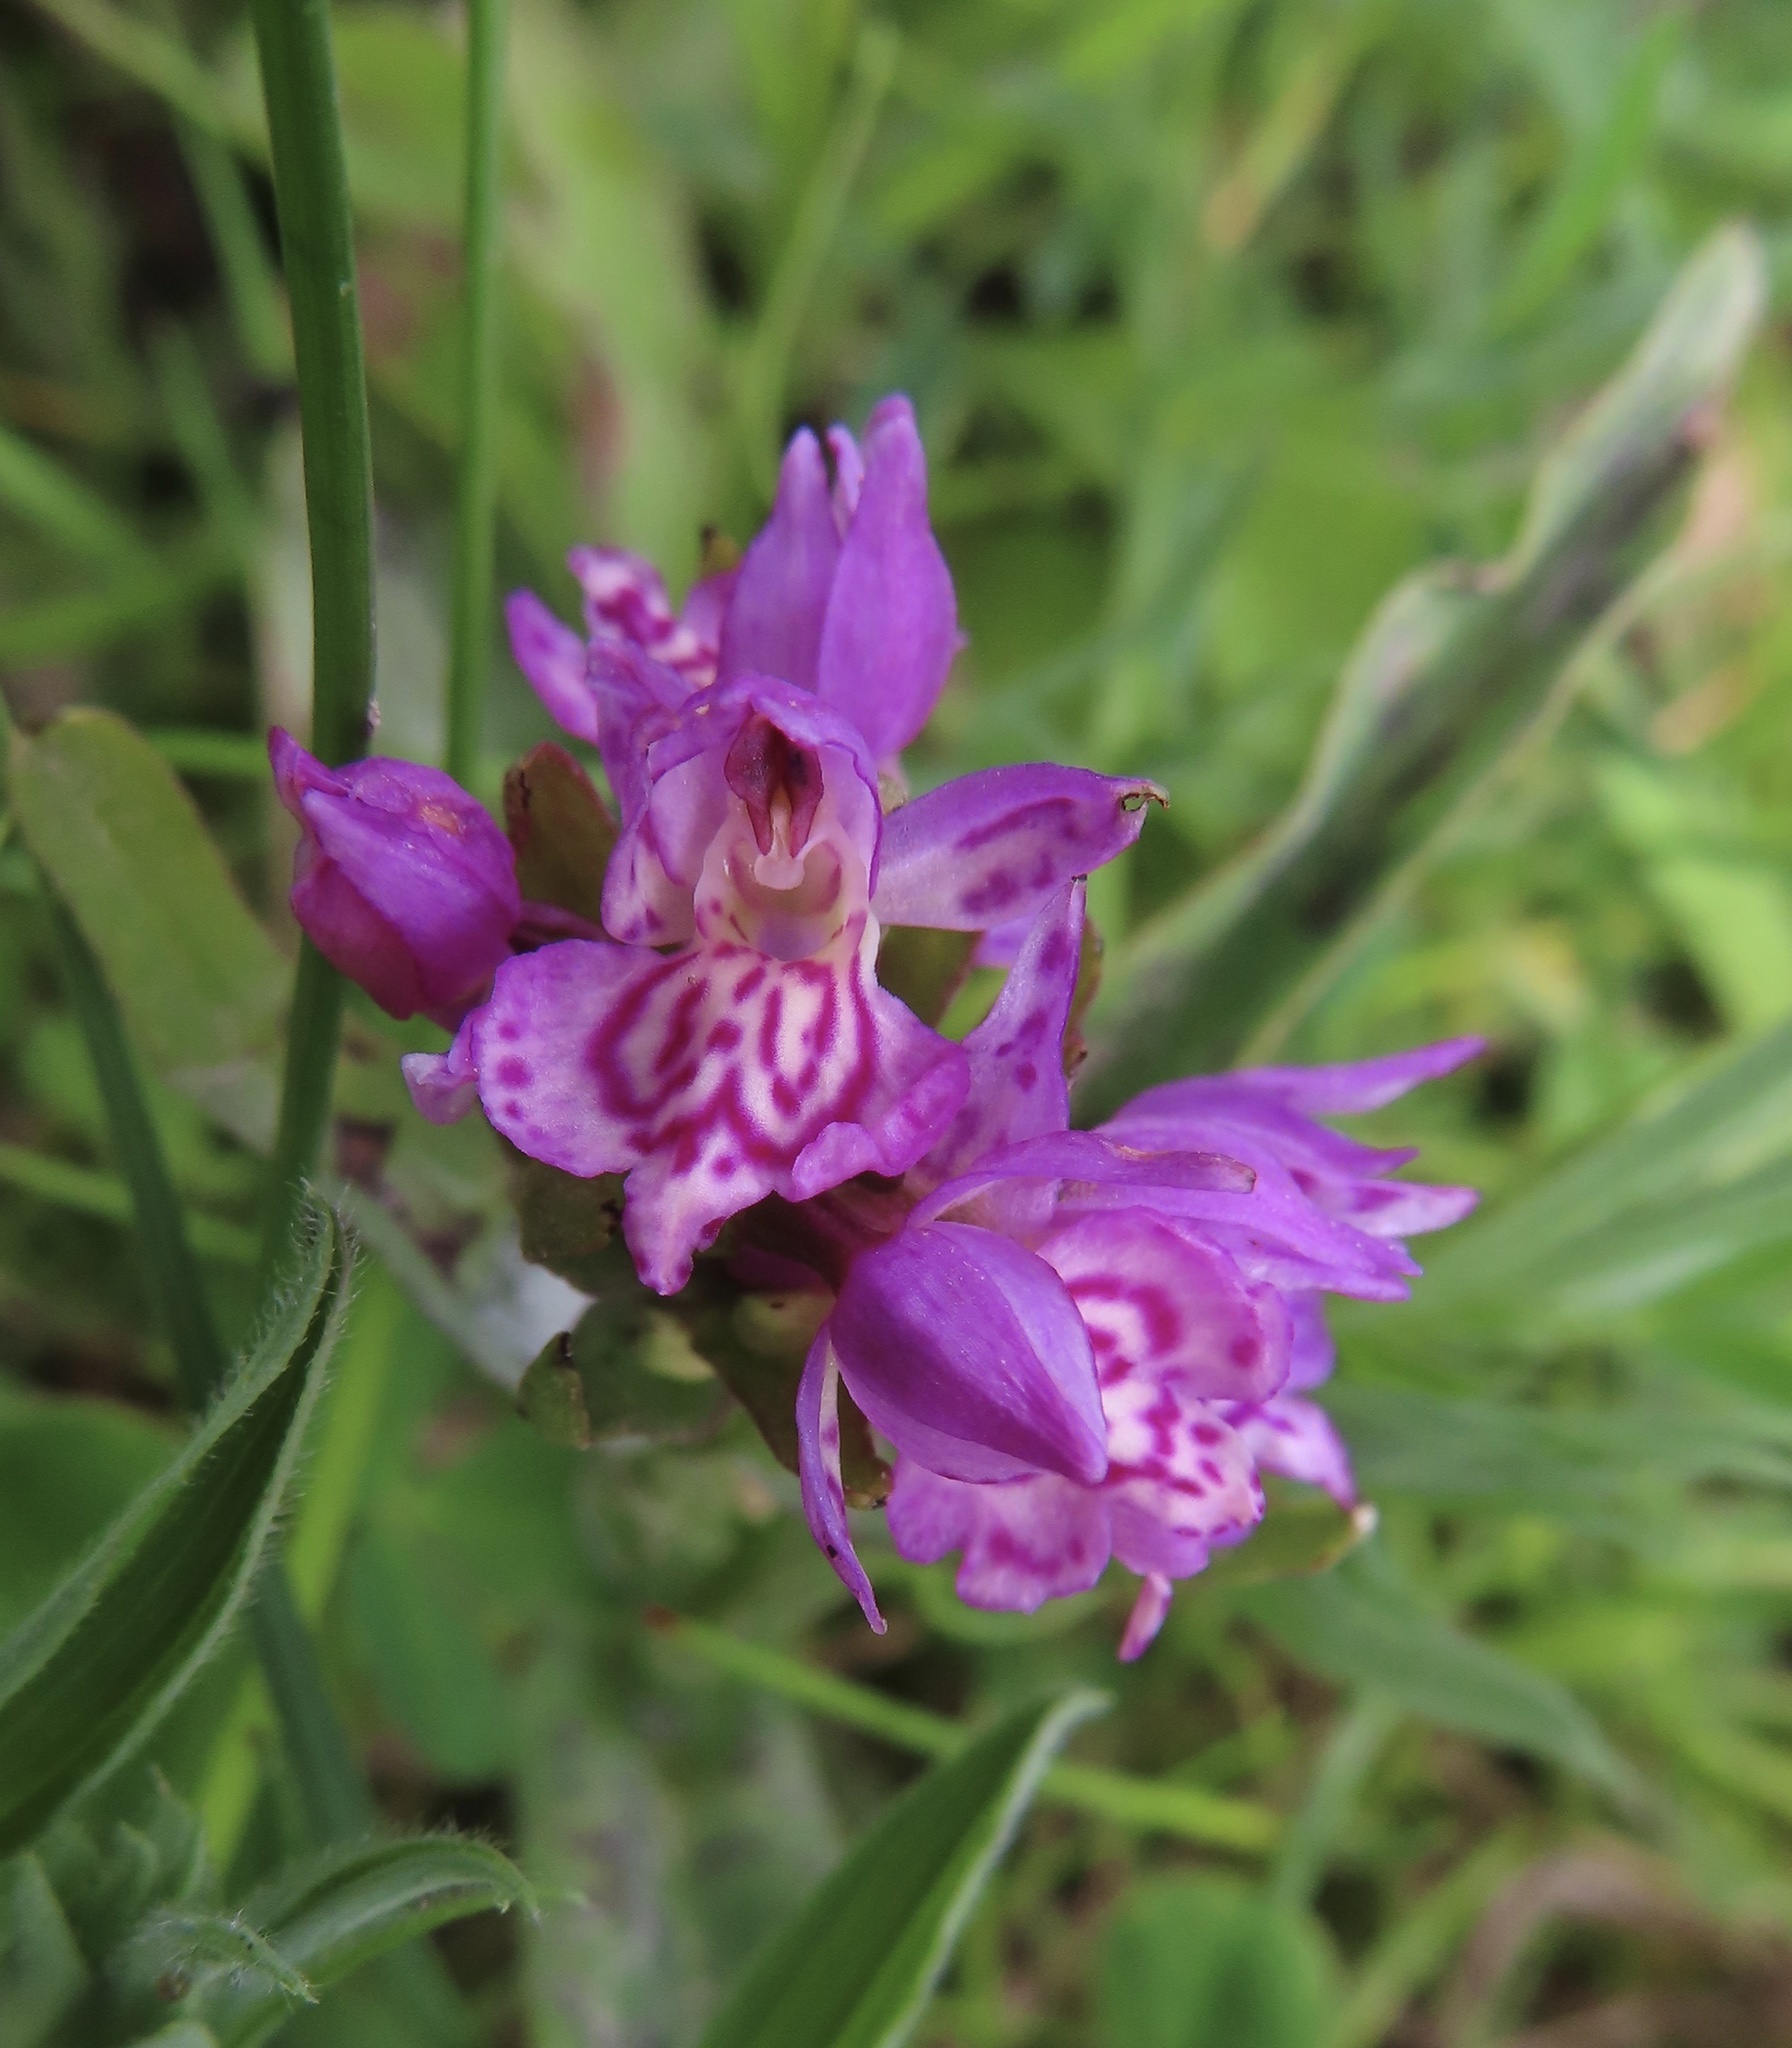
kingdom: Plantae
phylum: Tracheophyta
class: Liliopsida
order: Asparagales
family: Orchidaceae
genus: Dactylorhiza
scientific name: Dactylorhiza majalis
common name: Marsh orchid
